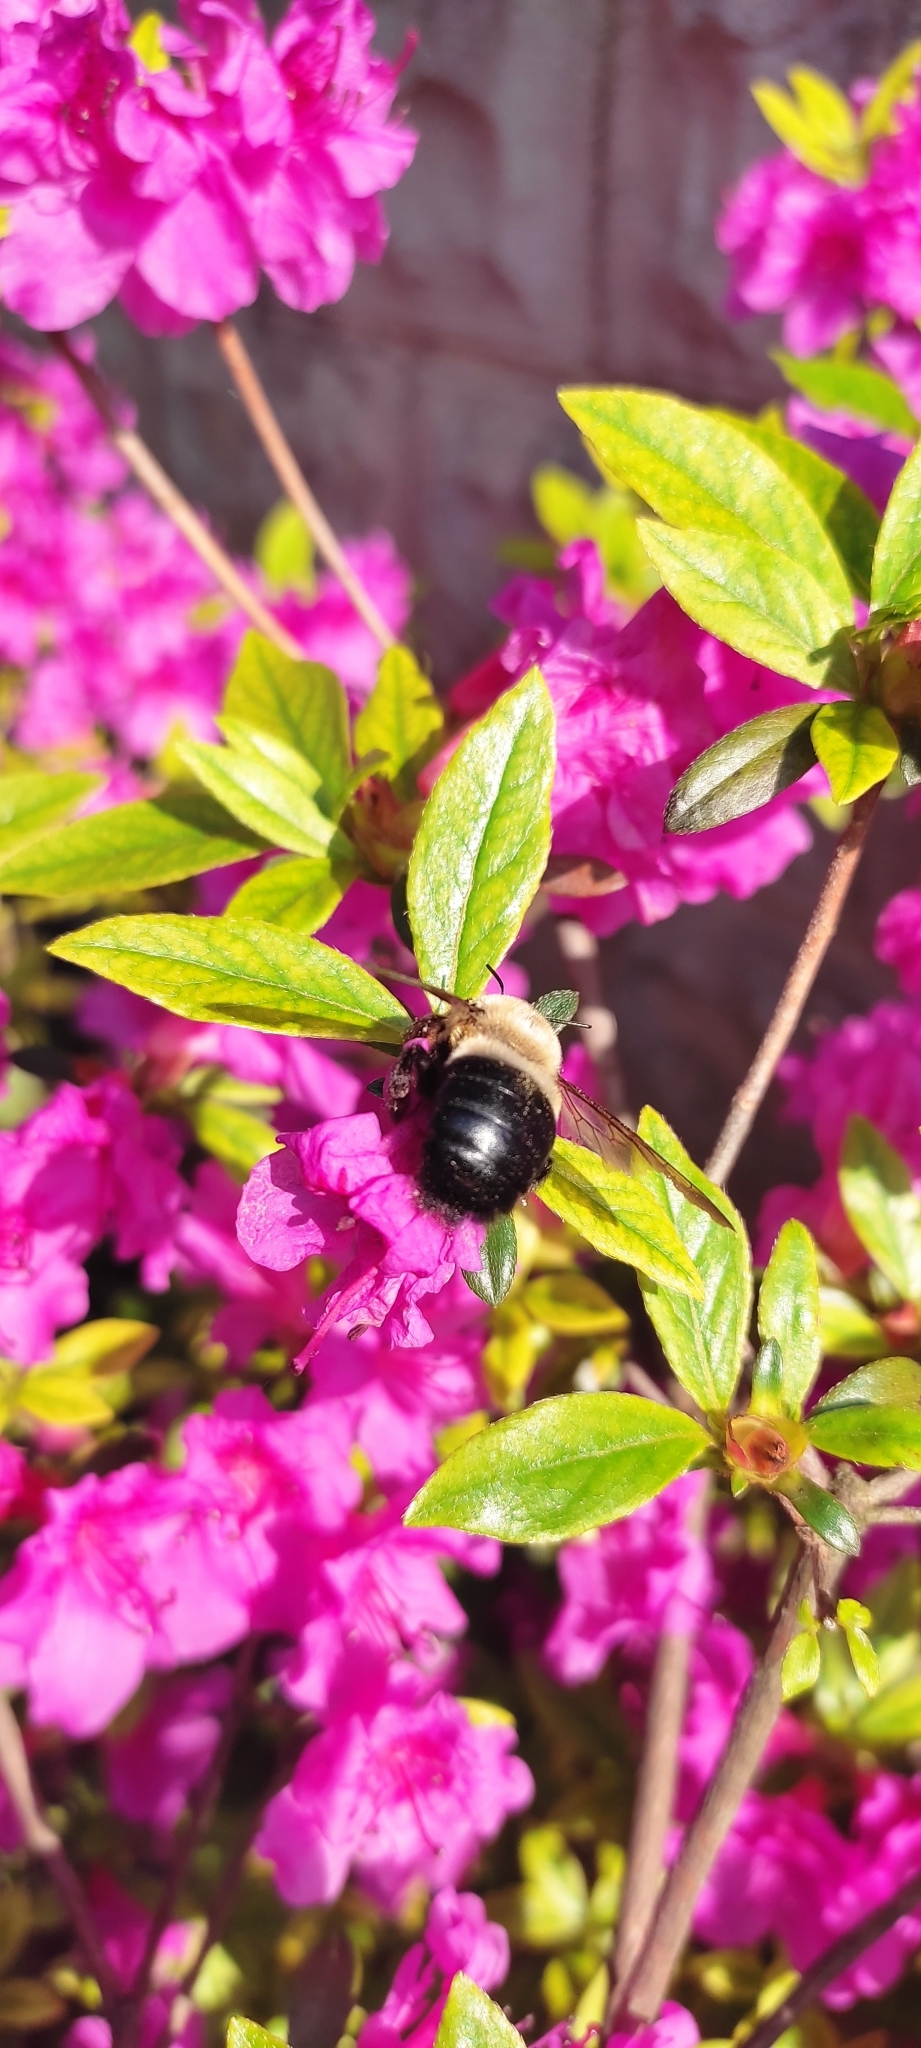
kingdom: Animalia
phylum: Arthropoda
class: Insecta
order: Hymenoptera
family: Apidae
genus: Xylocopa
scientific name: Xylocopa virginica
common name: Carpenter bee
